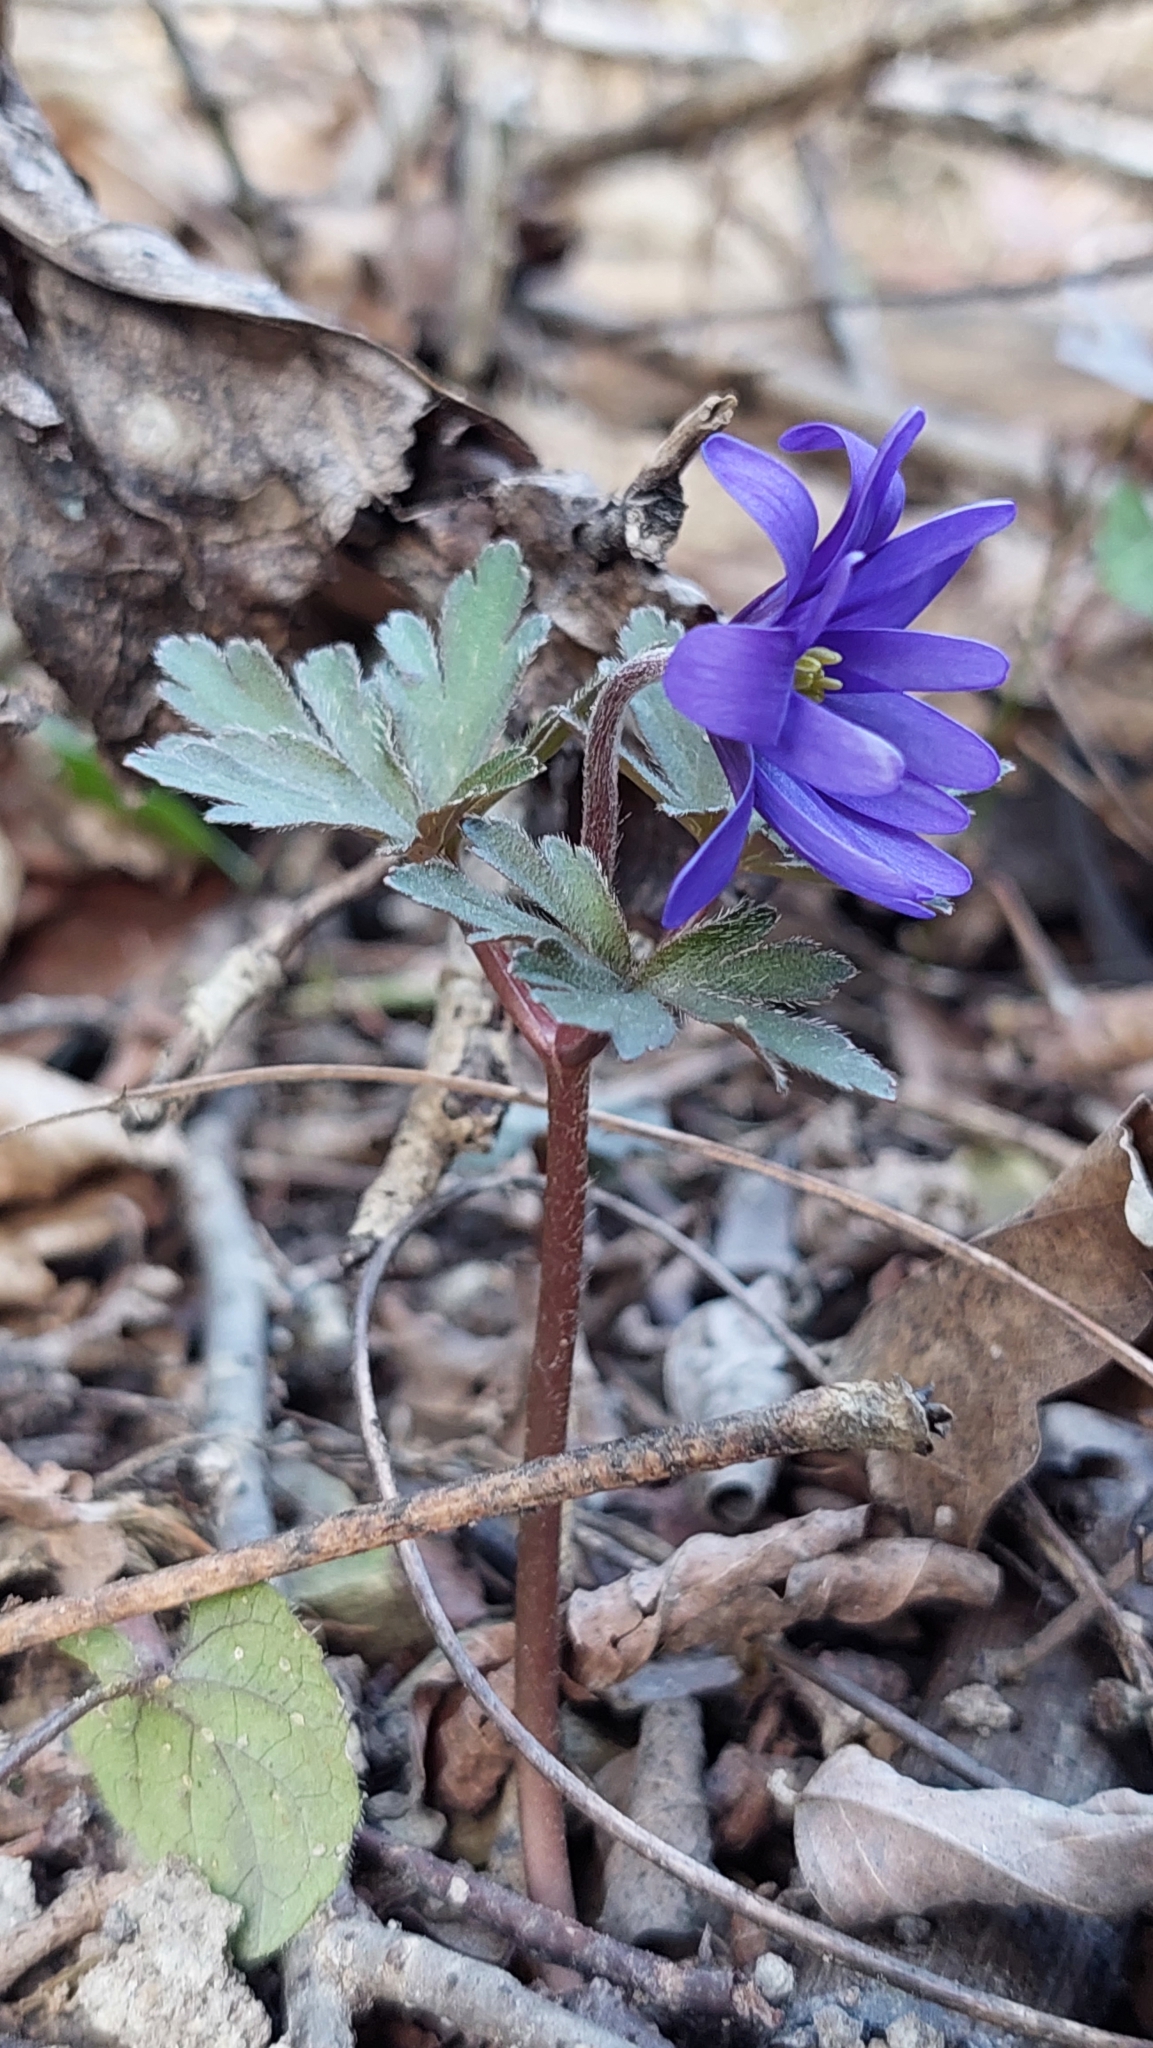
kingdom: Plantae
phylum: Tracheophyta
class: Magnoliopsida
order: Ranunculales
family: Ranunculaceae
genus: Anemone
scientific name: Anemone blanda
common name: Balkan anemone
